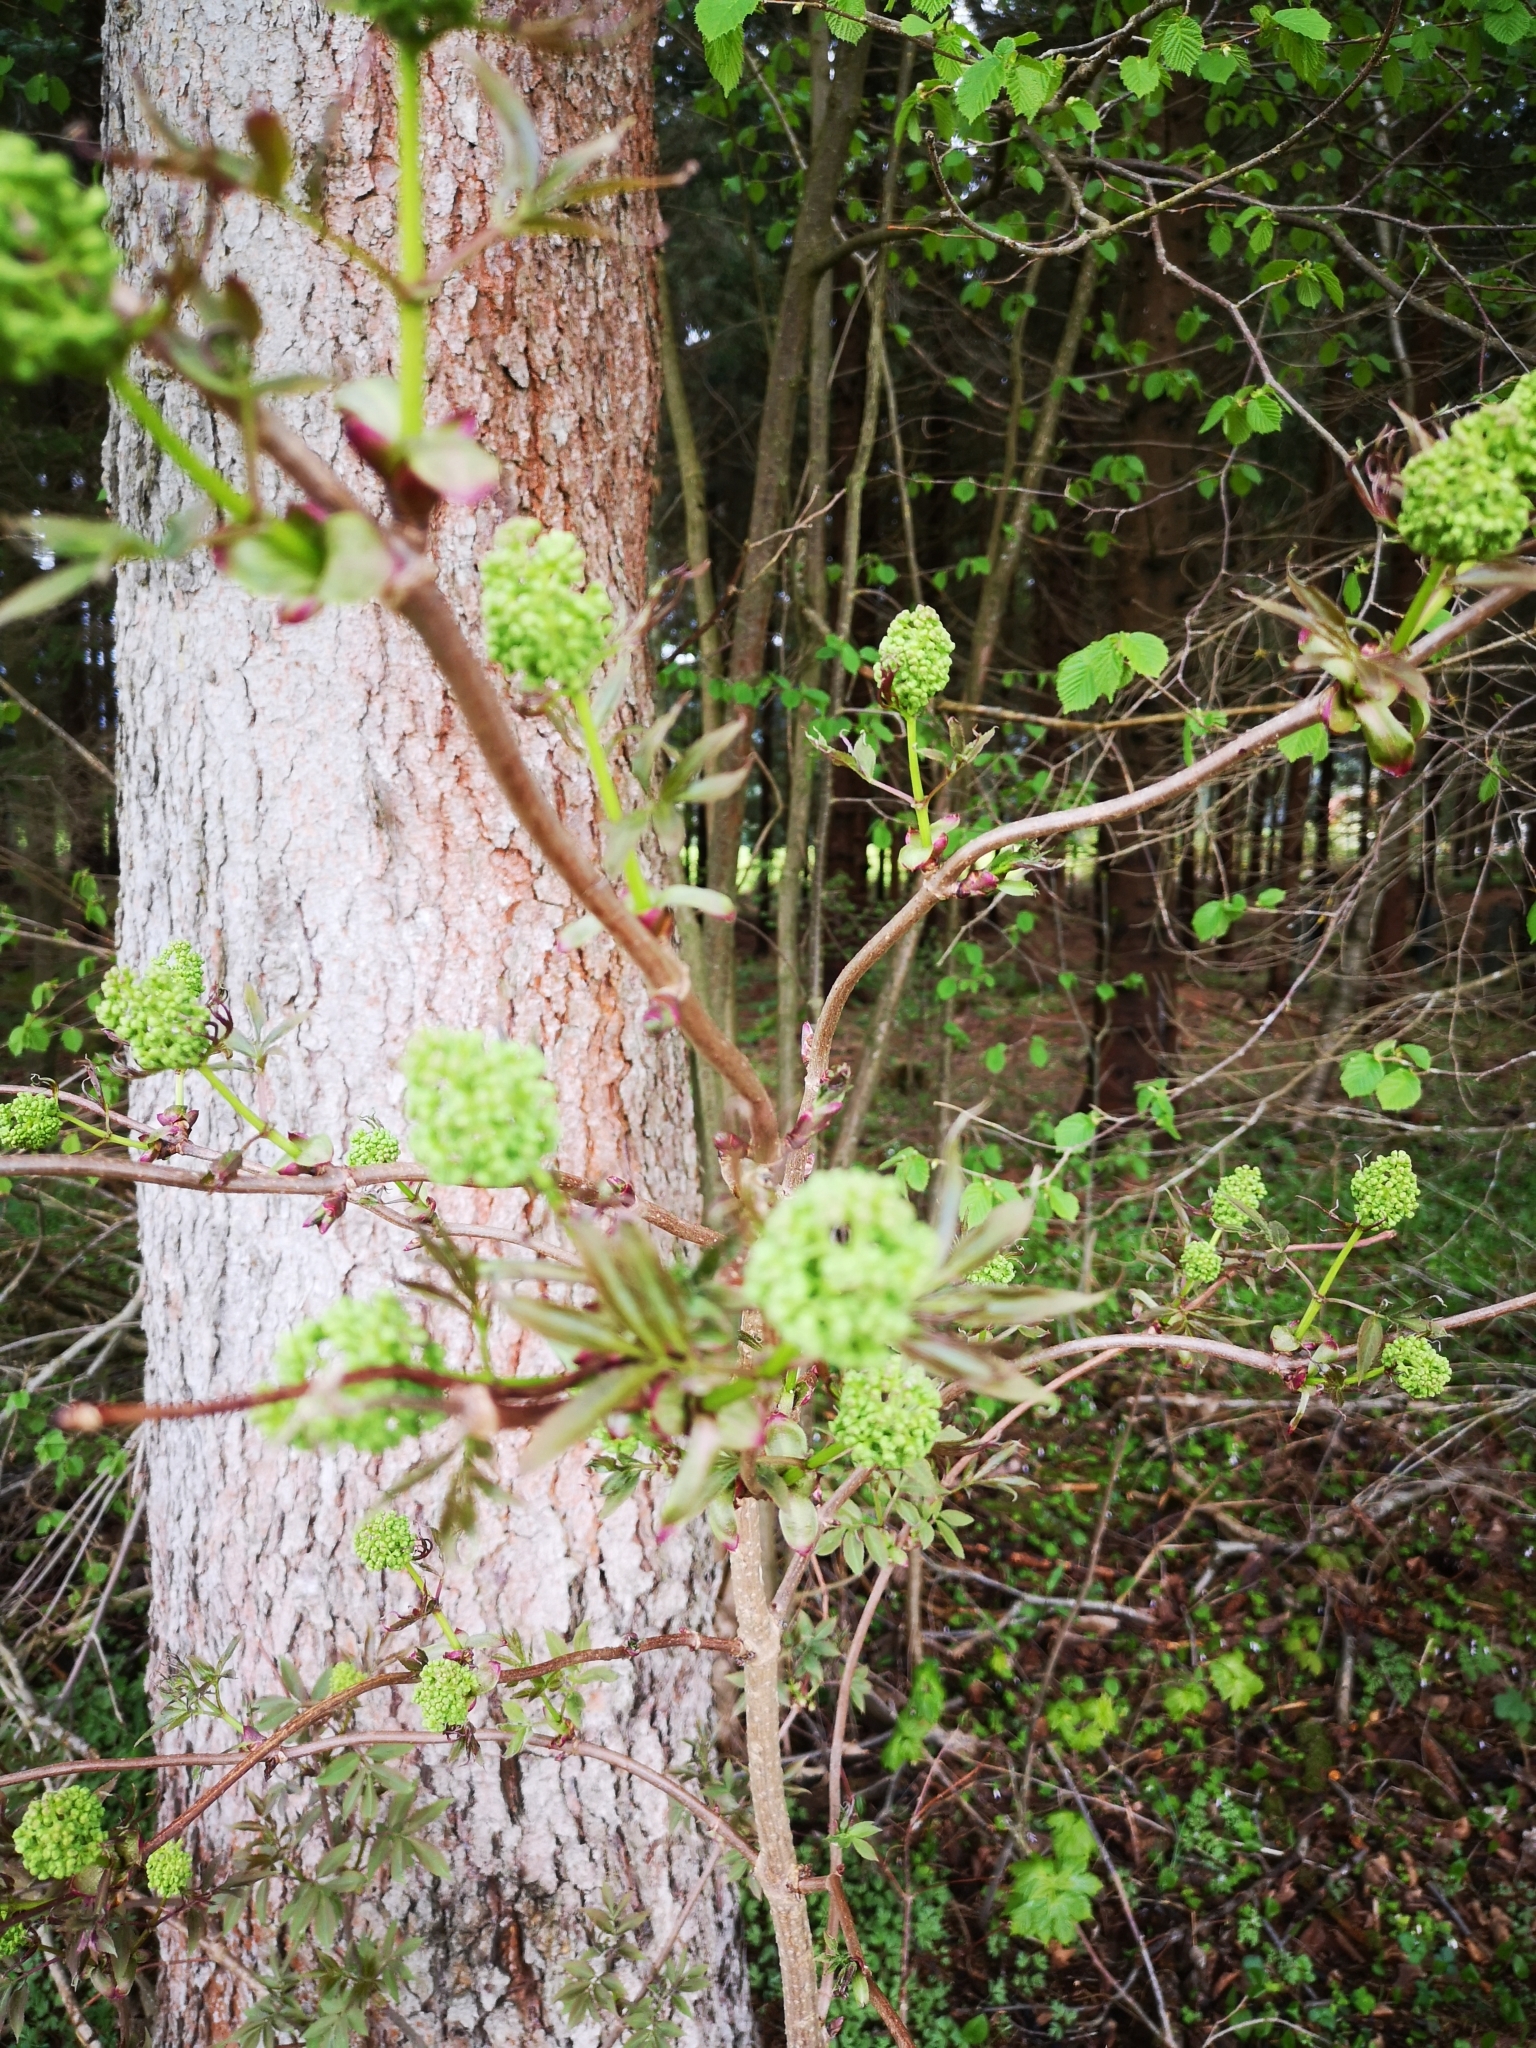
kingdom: Plantae
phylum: Tracheophyta
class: Magnoliopsida
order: Dipsacales
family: Viburnaceae
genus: Sambucus
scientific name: Sambucus racemosa
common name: Red-berried elder
